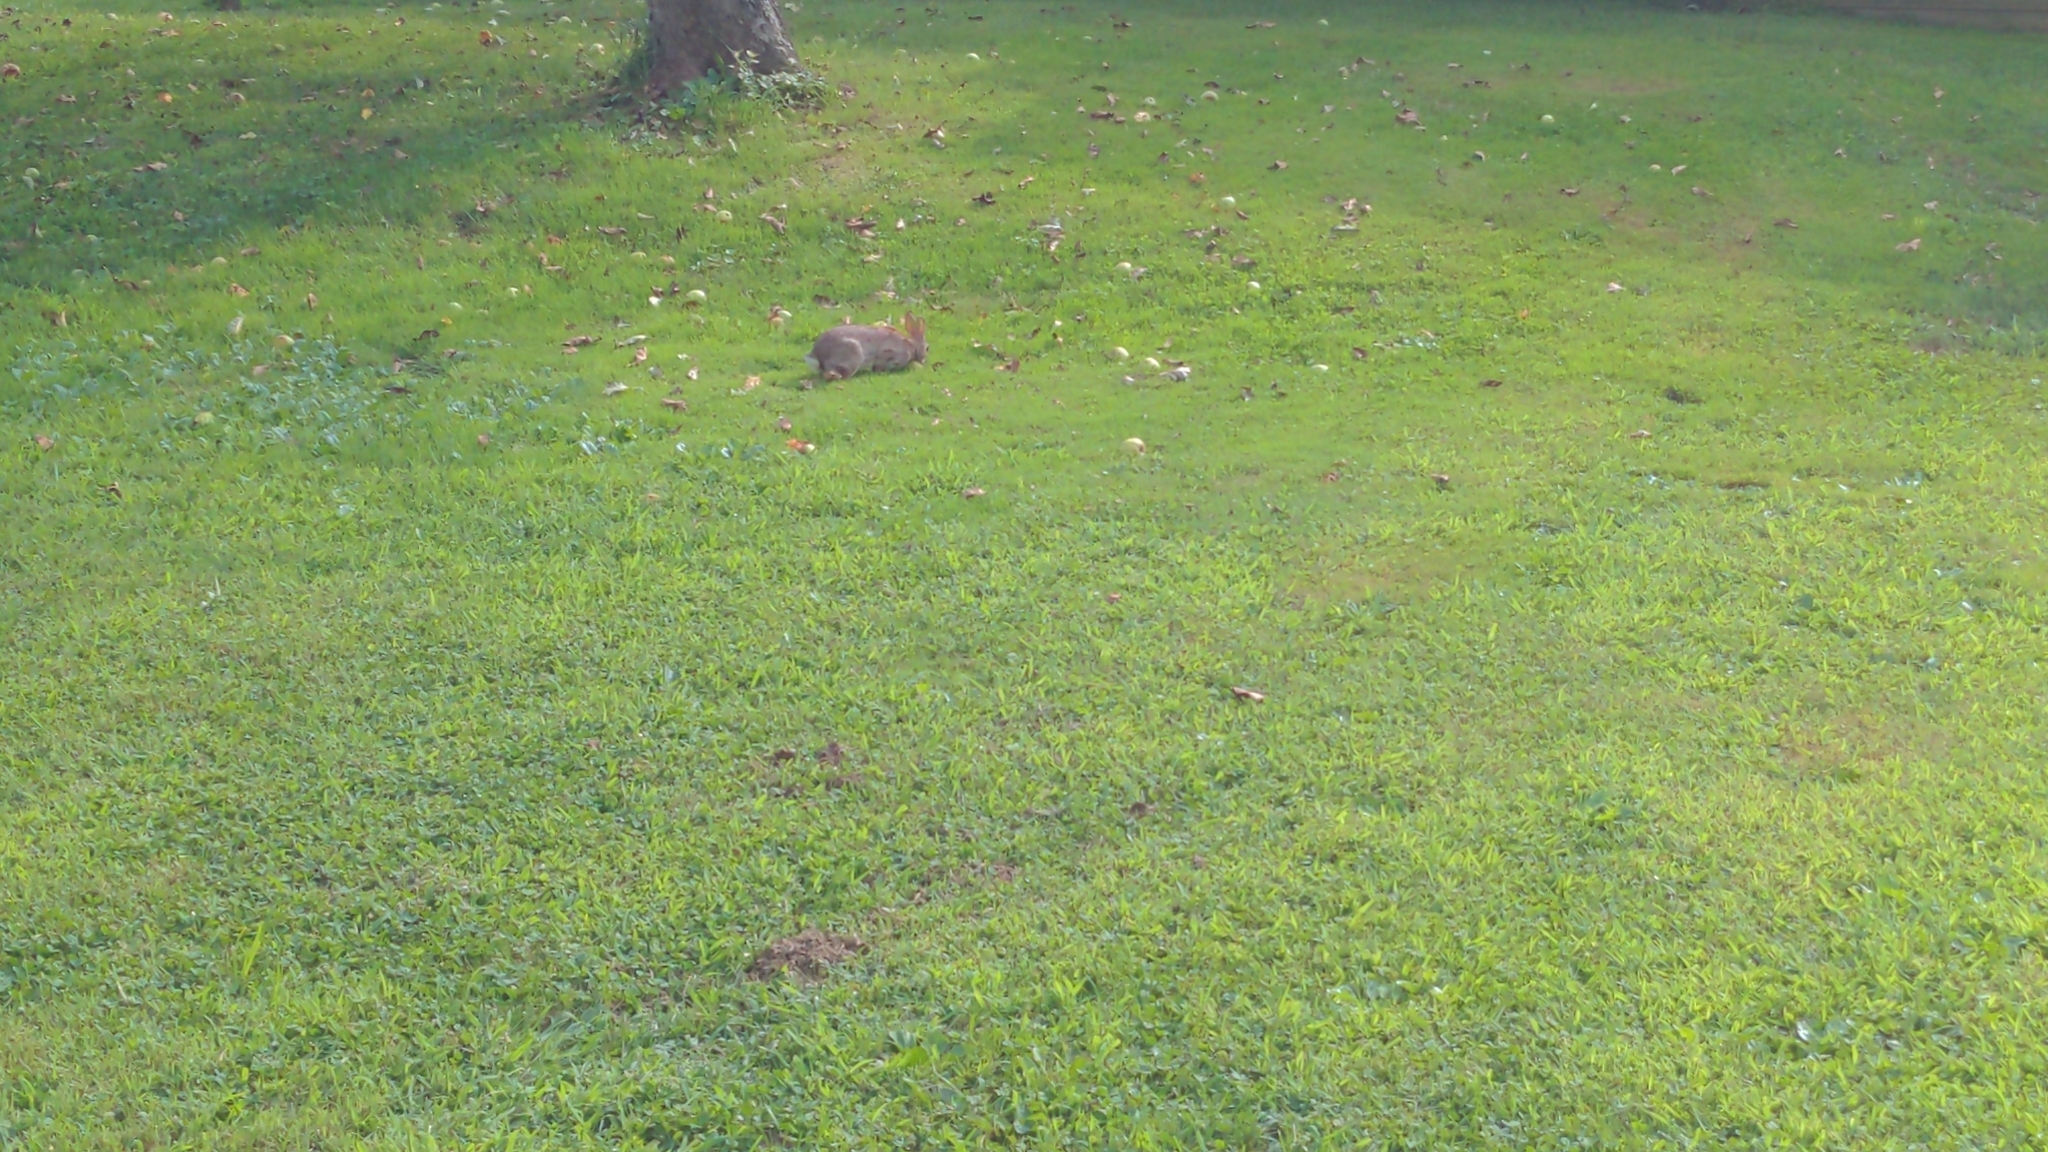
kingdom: Animalia
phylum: Chordata
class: Mammalia
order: Lagomorpha
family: Leporidae
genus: Sylvilagus
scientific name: Sylvilagus floridanus
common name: Eastern cottontail
